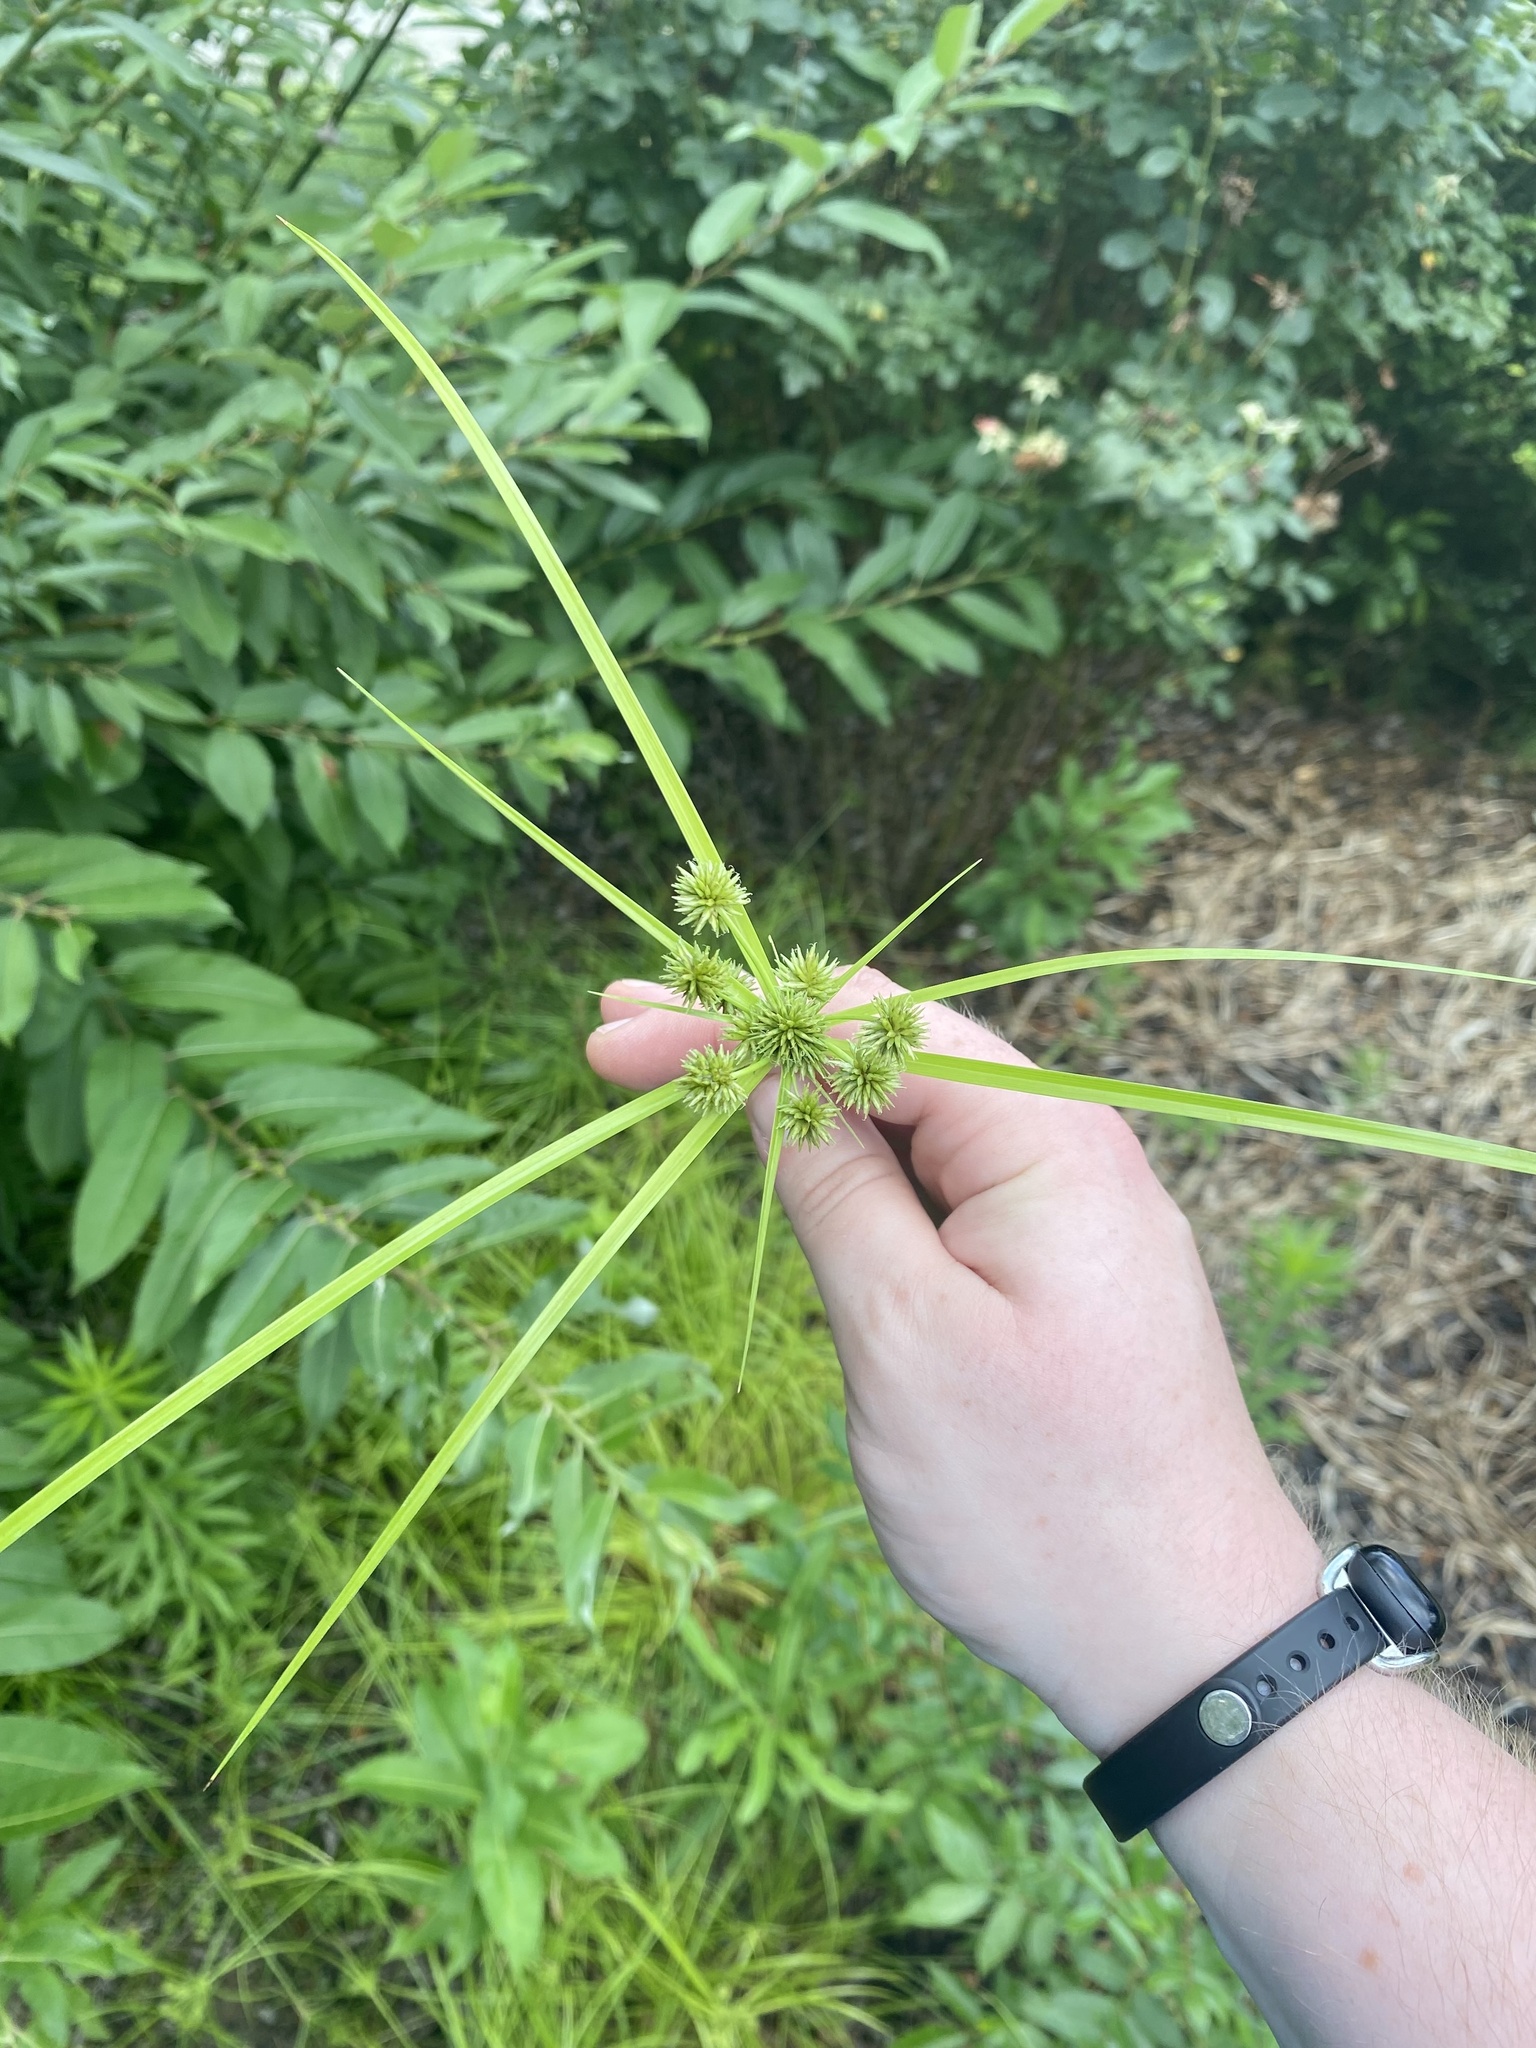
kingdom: Plantae
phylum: Tracheophyta
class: Liliopsida
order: Poales
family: Cyperaceae
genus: Cyperus
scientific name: Cyperus echinatus
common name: Teasel sedge
